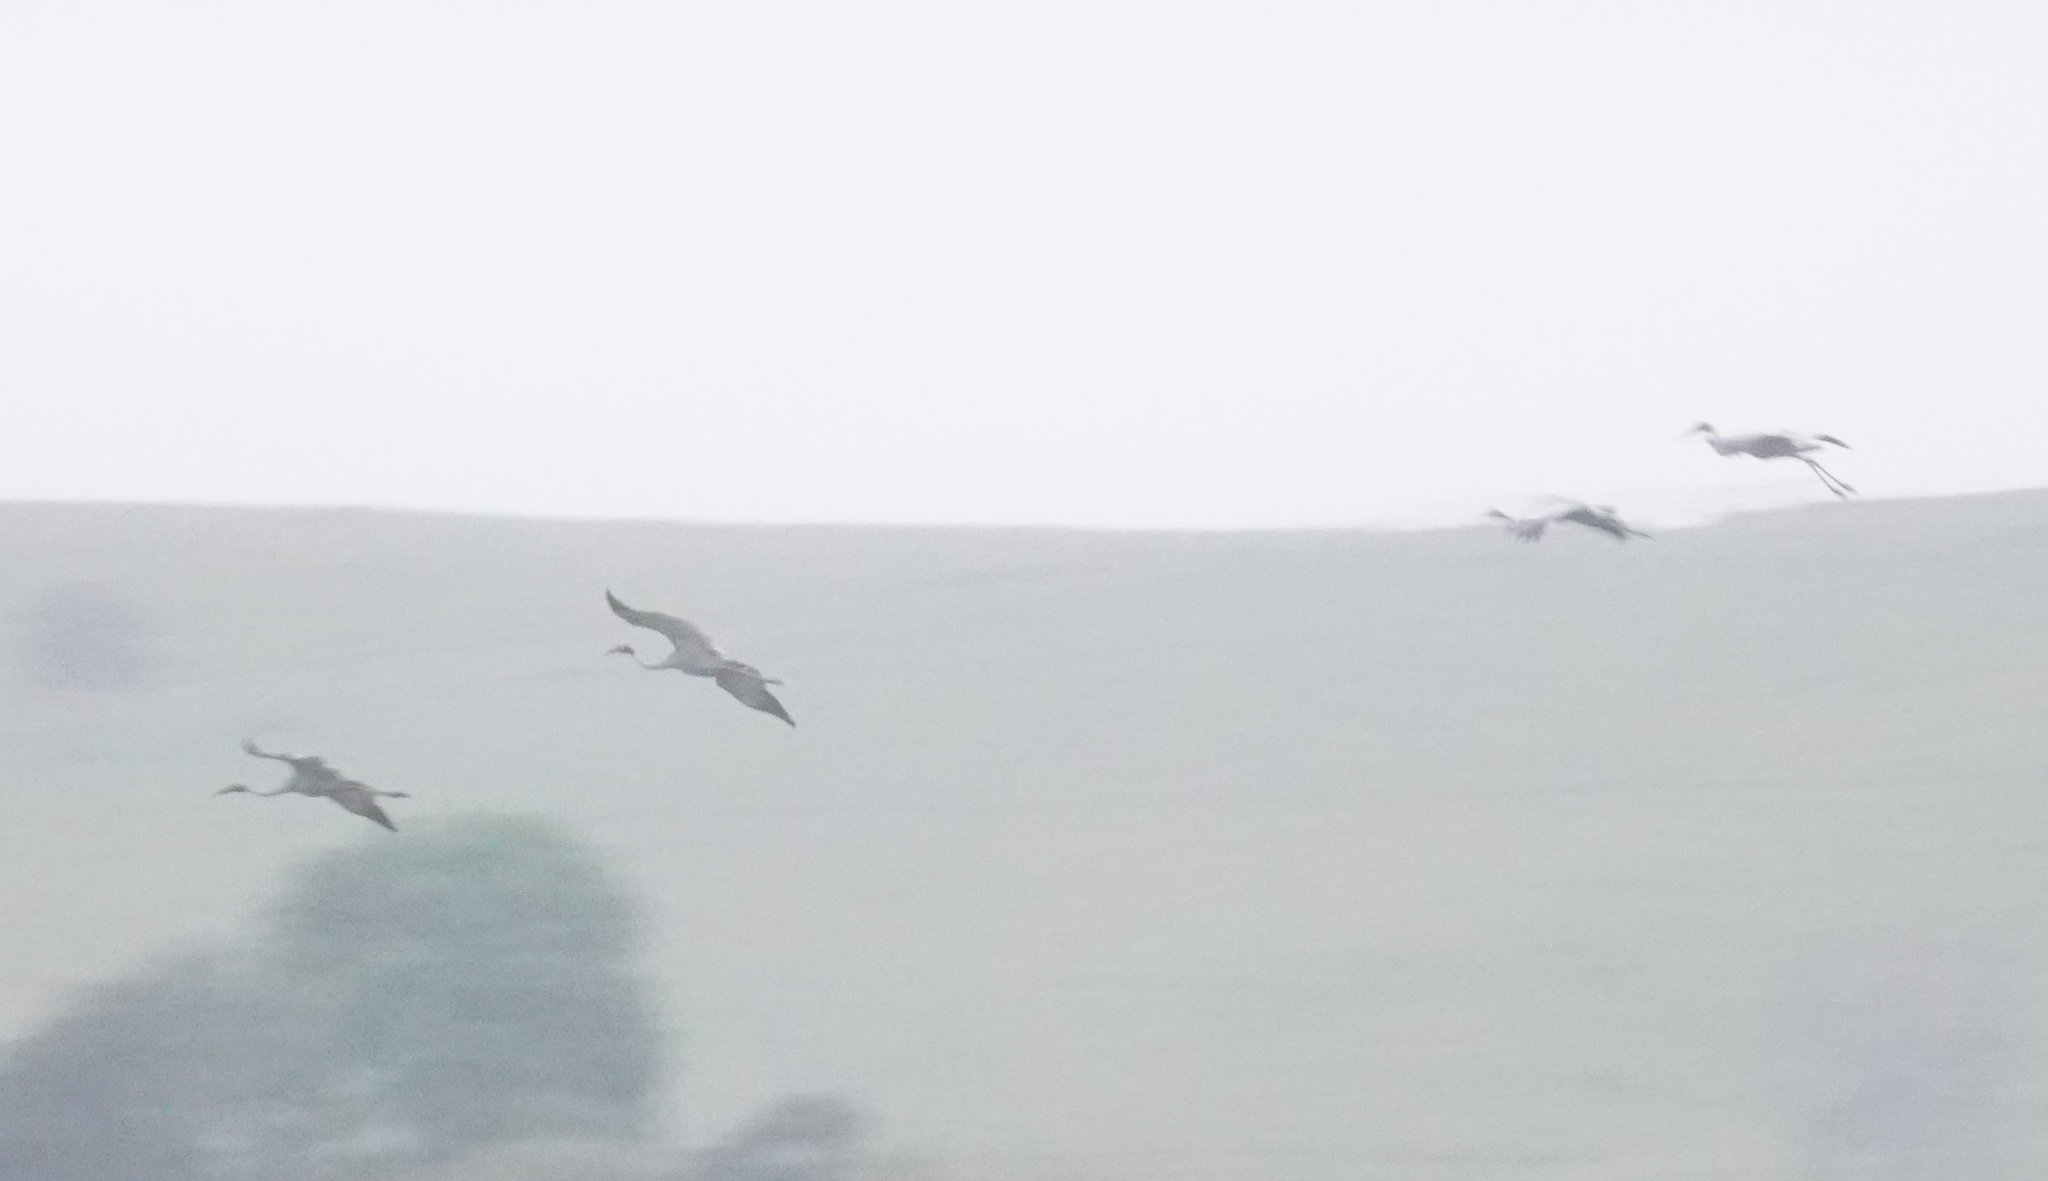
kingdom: Animalia
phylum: Chordata
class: Aves
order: Gruiformes
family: Gruidae
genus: Grus
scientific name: Grus antigone
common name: Sarus crane
